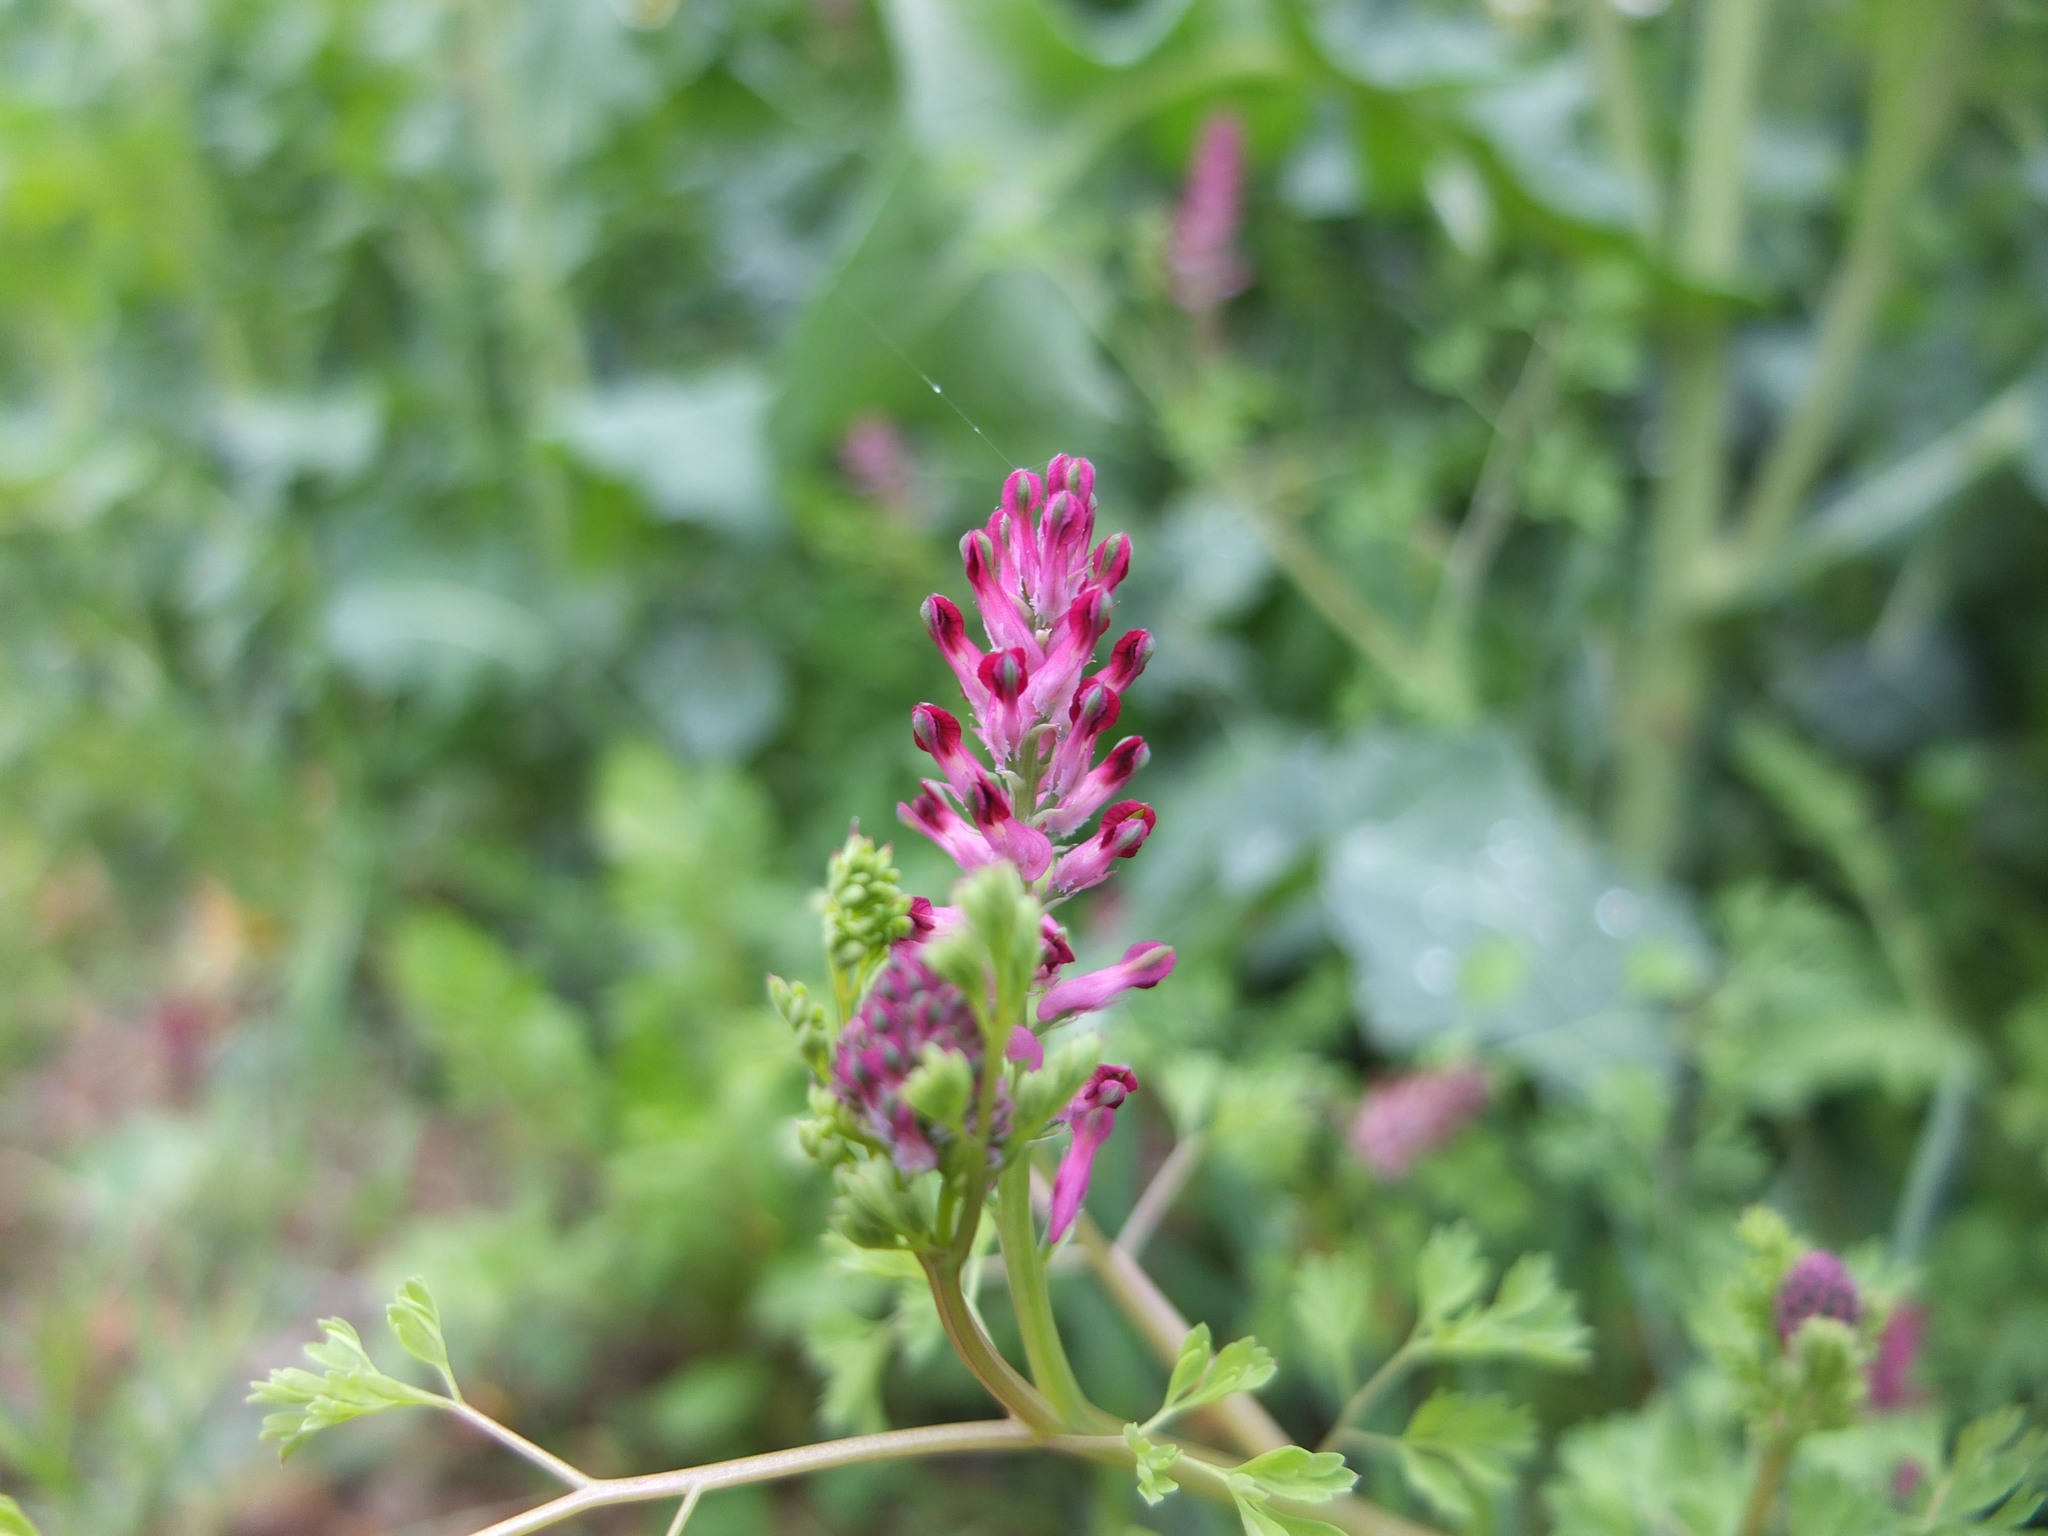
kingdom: Plantae
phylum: Tracheophyta
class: Magnoliopsida
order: Ranunculales
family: Papaveraceae
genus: Fumaria
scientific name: Fumaria officinalis
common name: Common fumitory
